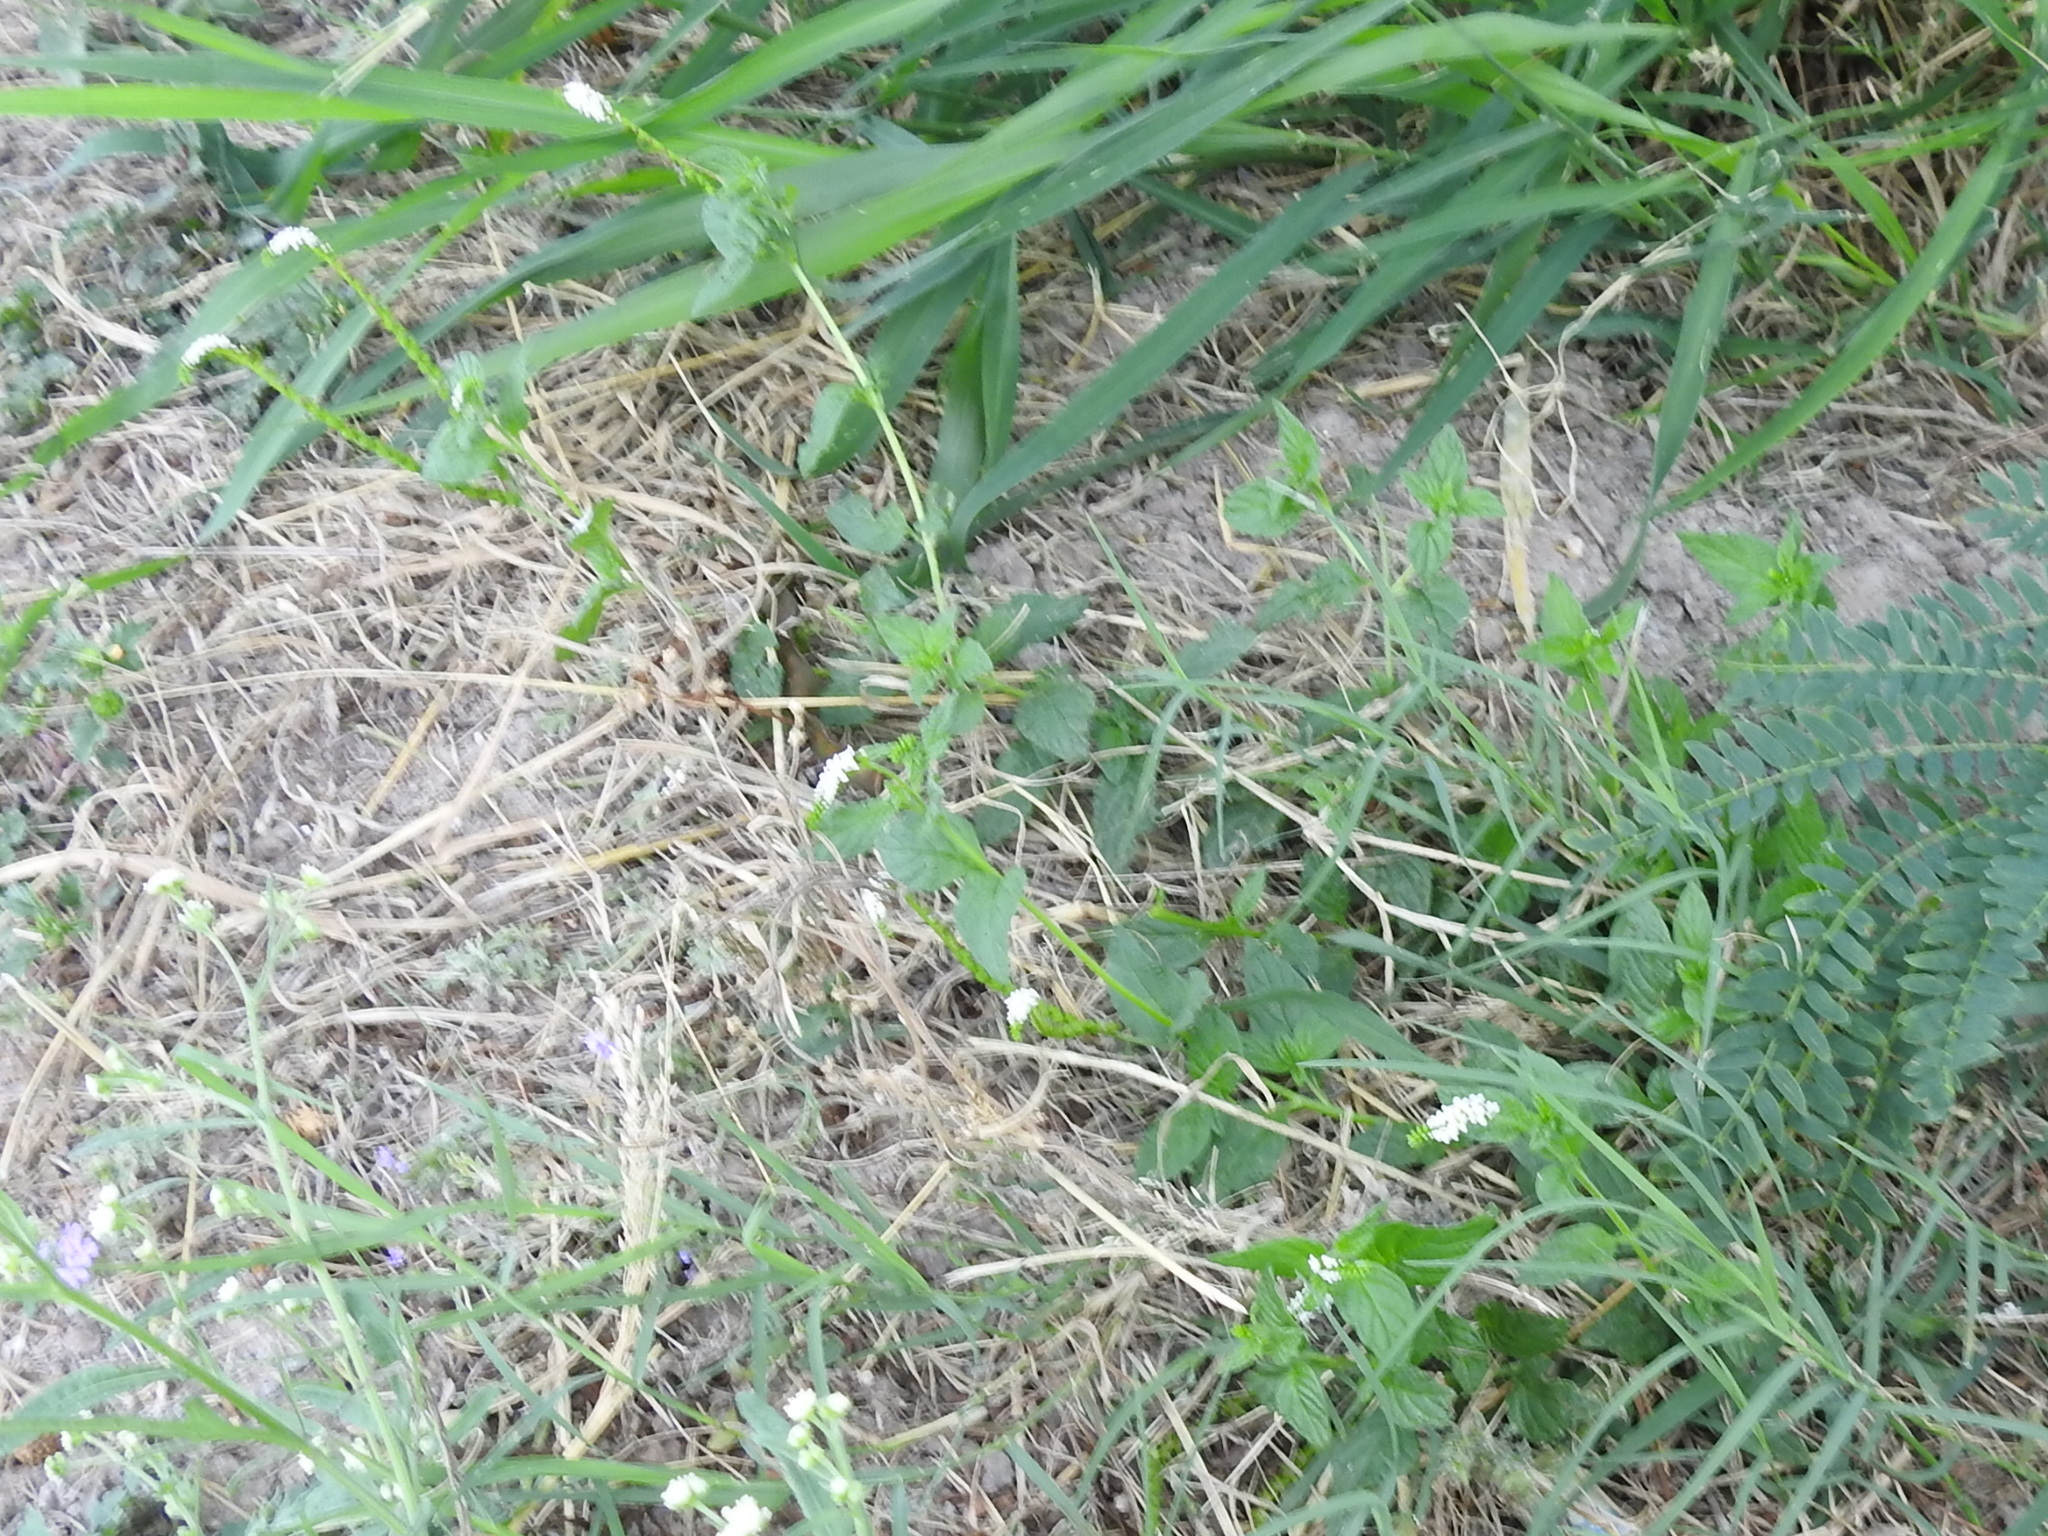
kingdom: Plantae
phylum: Tracheophyta
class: Magnoliopsida
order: Boraginales
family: Heliotropiaceae
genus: Heliotropium
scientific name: Heliotropium angiospermum
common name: Eye bright
